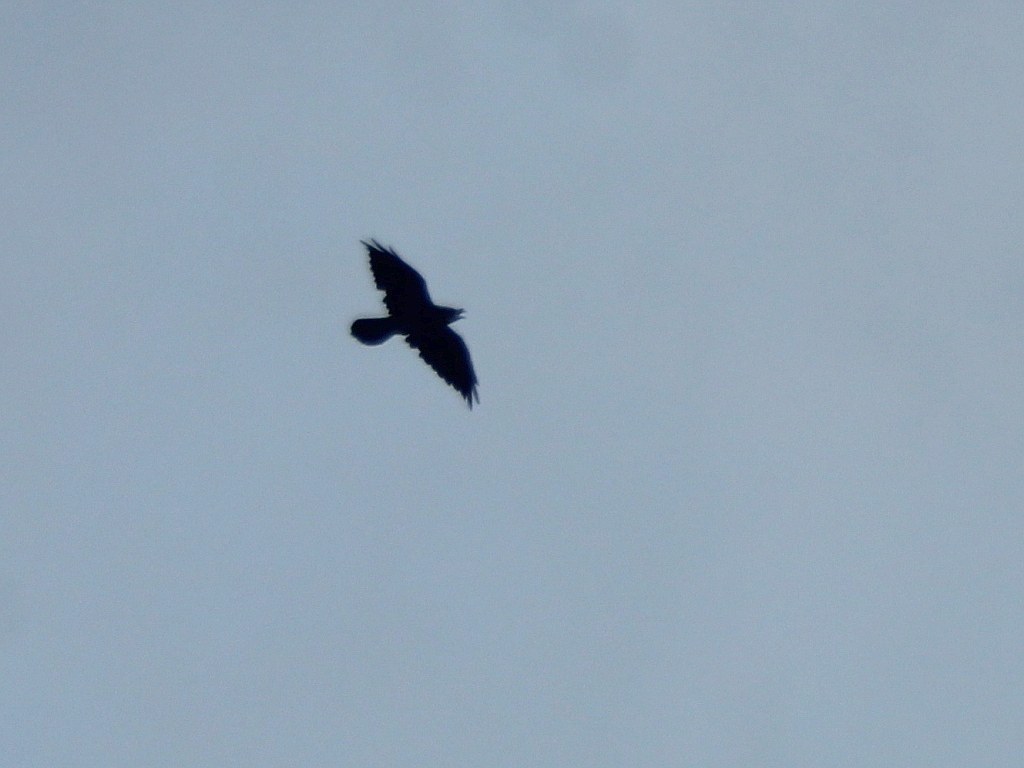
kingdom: Animalia
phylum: Chordata
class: Aves
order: Passeriformes
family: Corvidae
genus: Corvus
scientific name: Corvus corax
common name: Common raven
